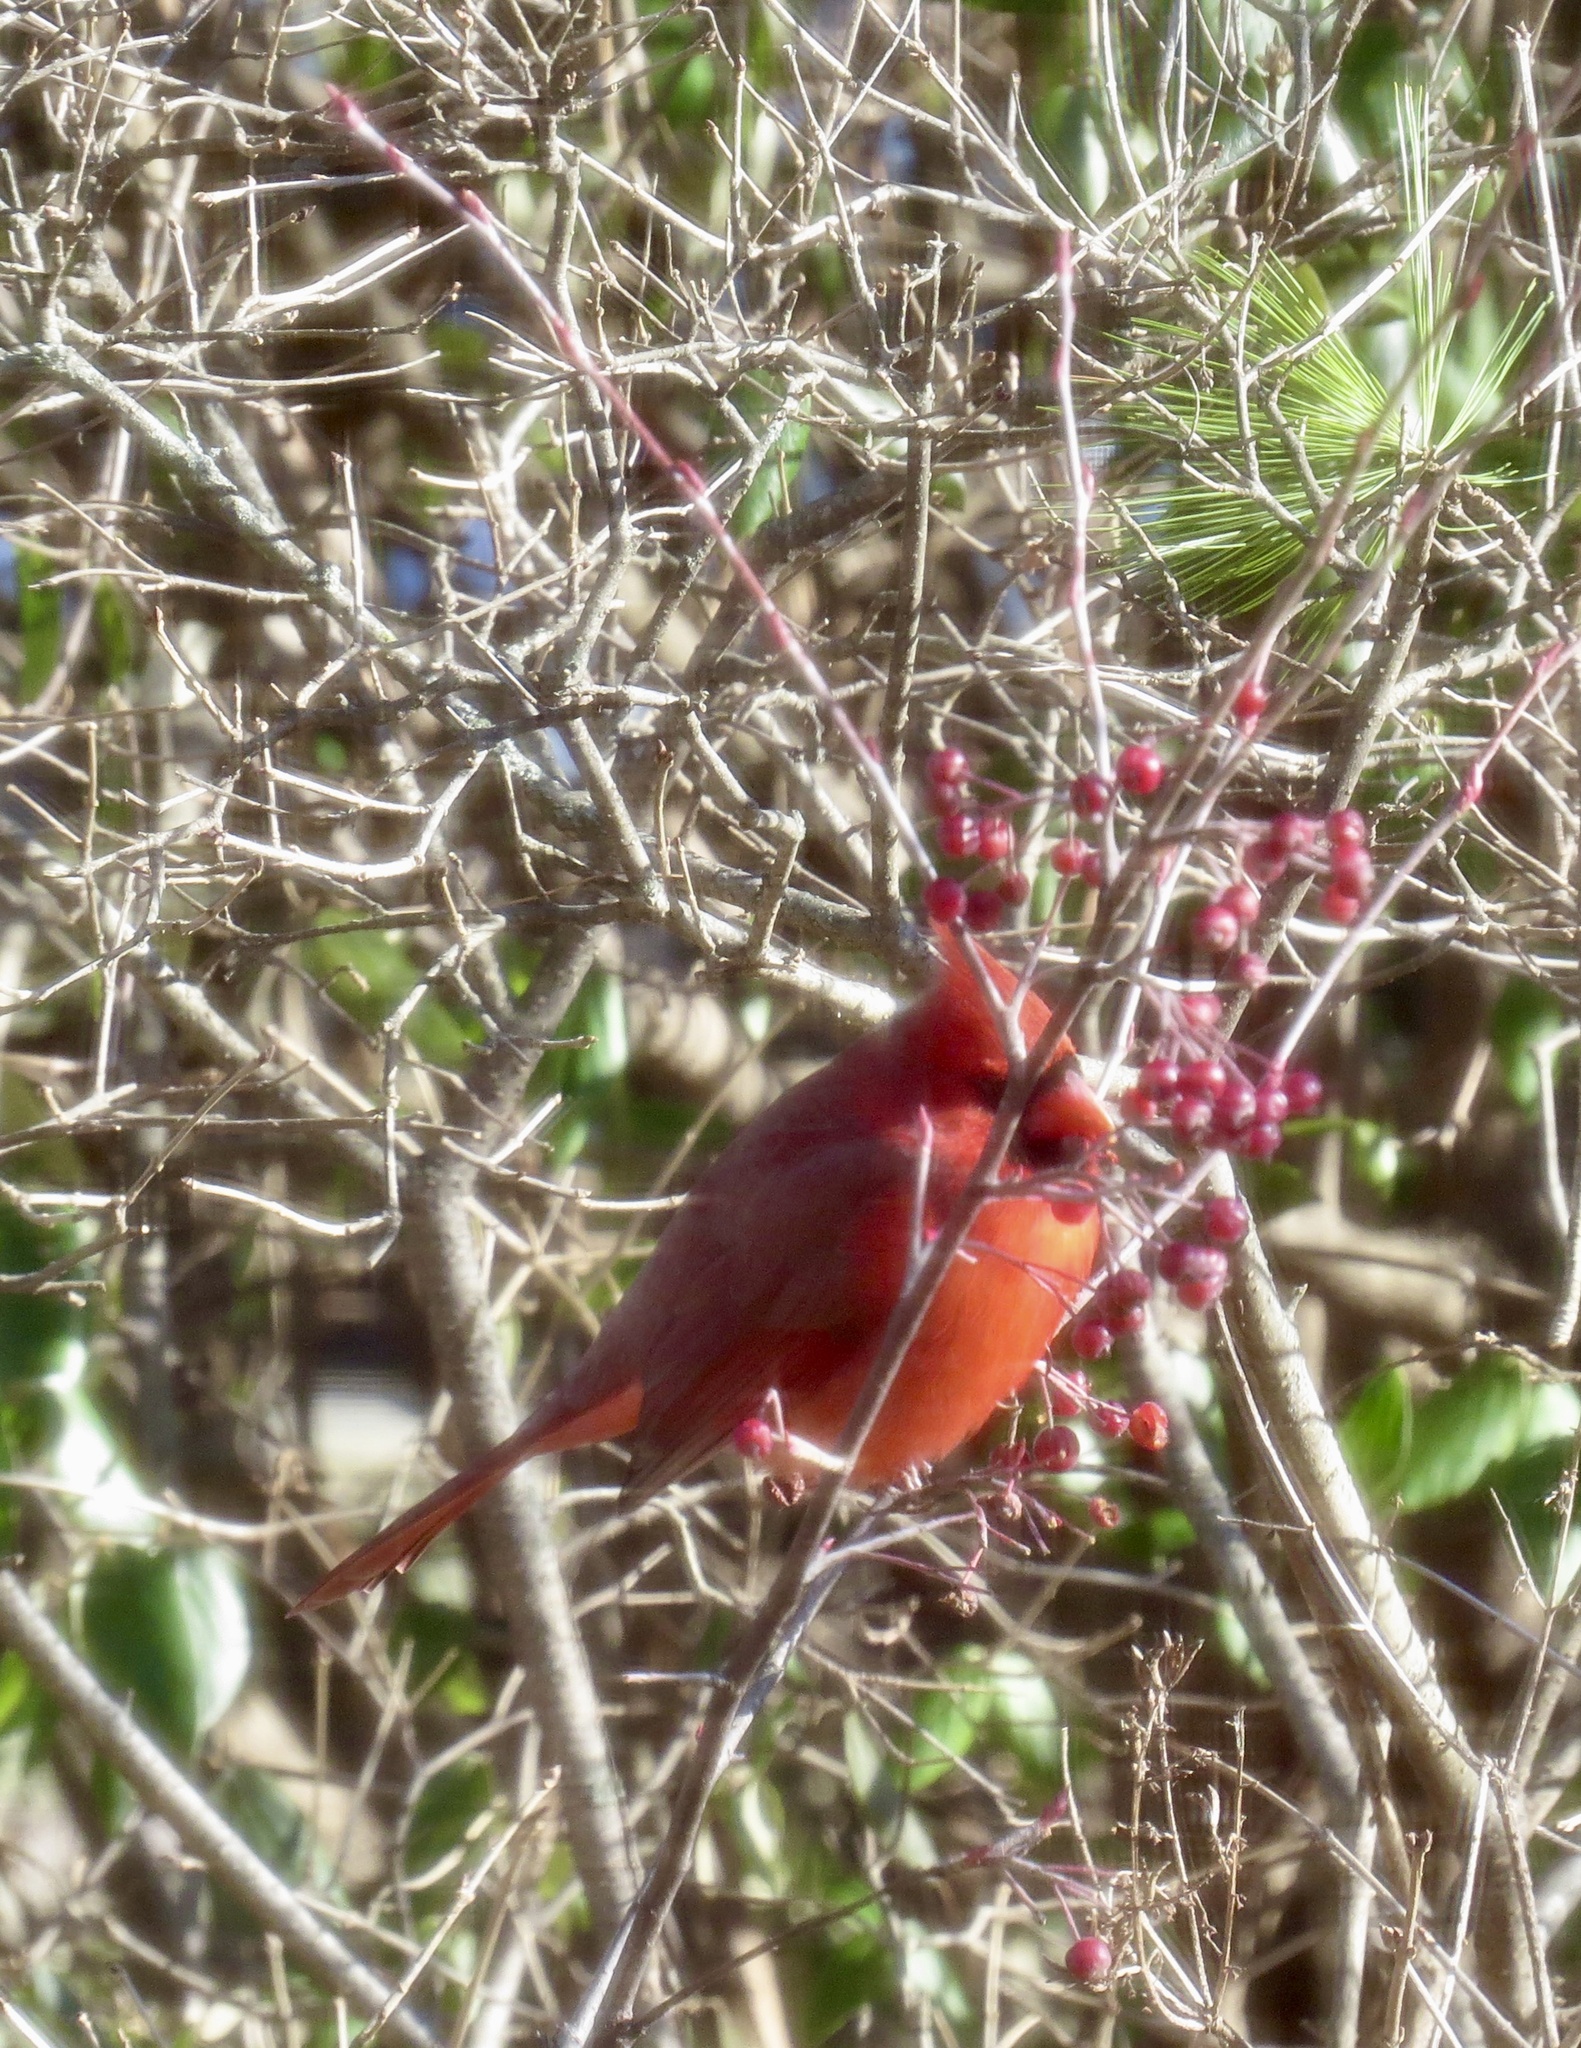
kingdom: Animalia
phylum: Chordata
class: Aves
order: Passeriformes
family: Cardinalidae
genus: Cardinalis
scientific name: Cardinalis cardinalis
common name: Northern cardinal
